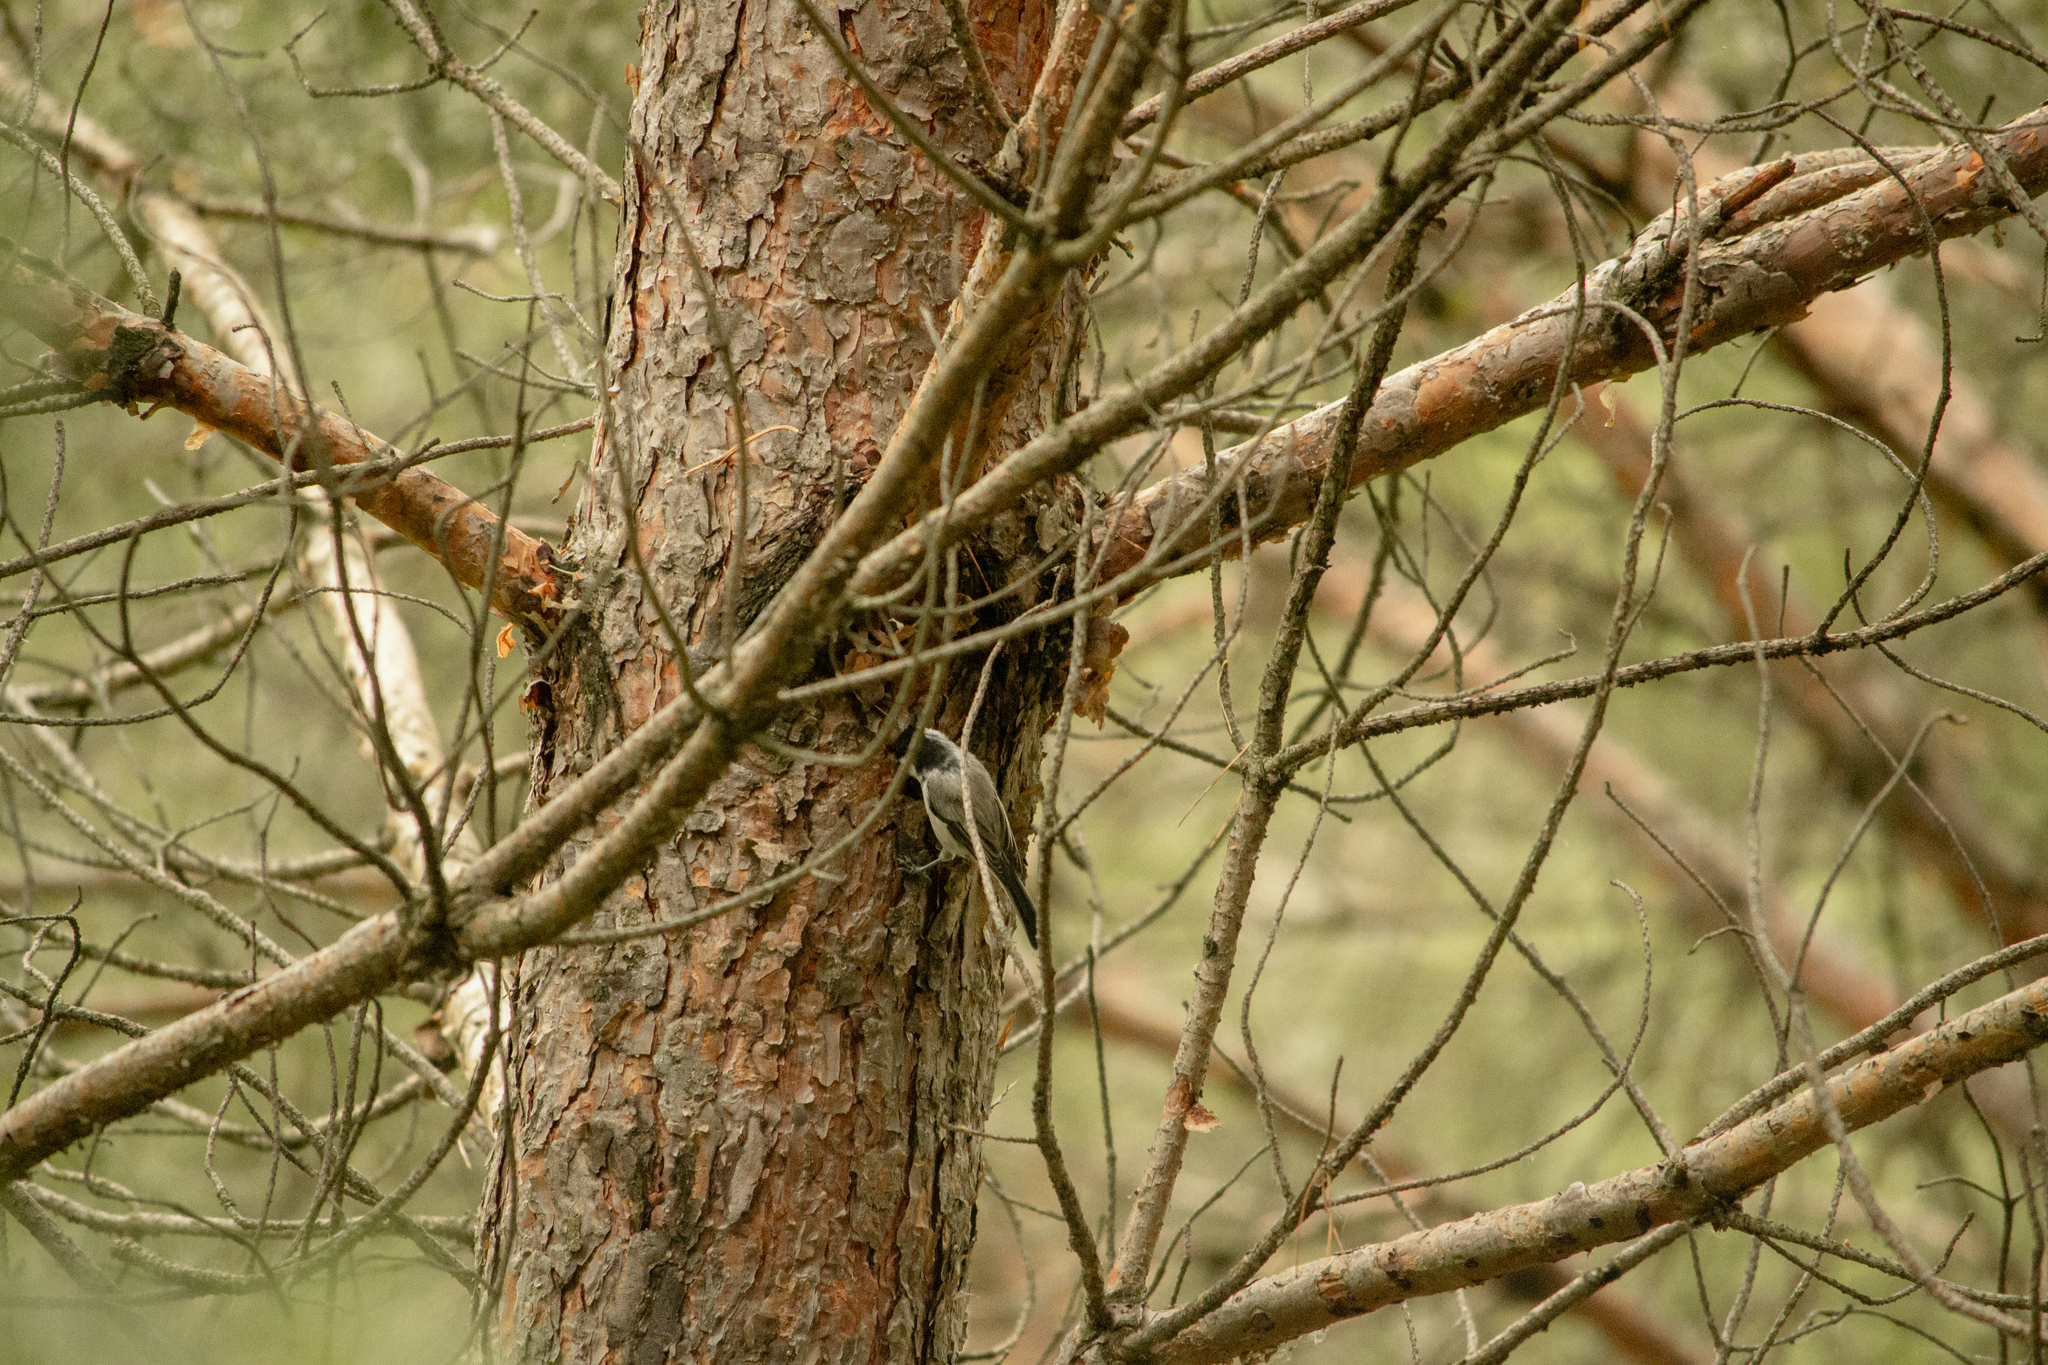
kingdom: Animalia
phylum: Chordata
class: Aves
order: Passeriformes
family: Paridae
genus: Poecile
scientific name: Poecile montanus
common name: Willow tit
